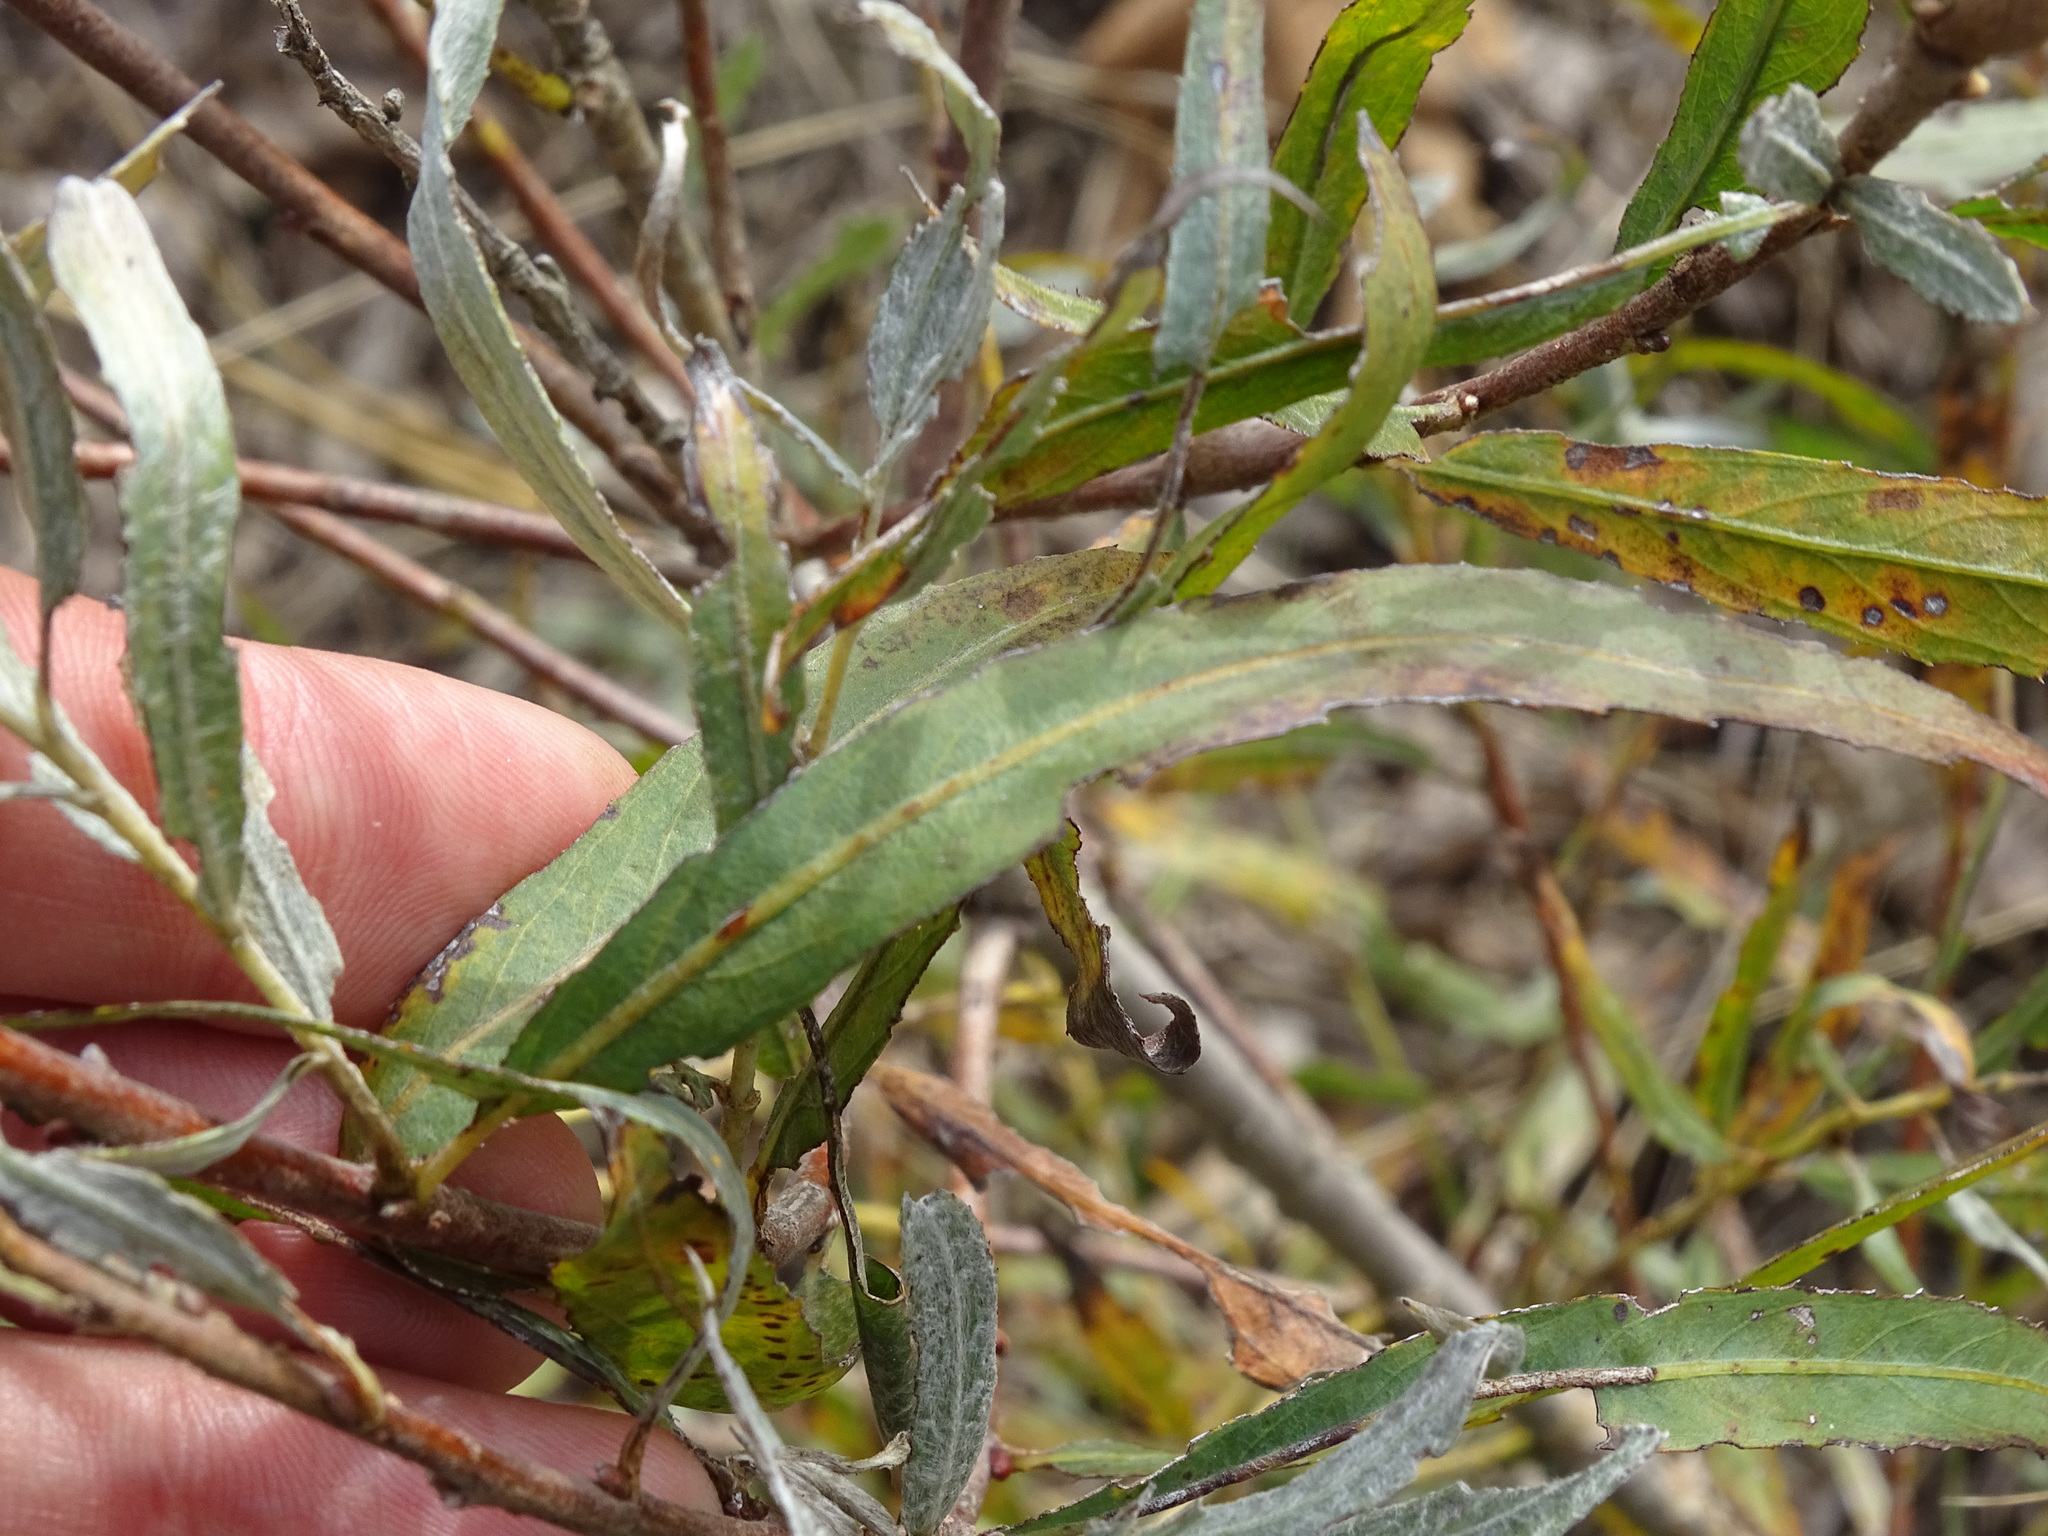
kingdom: Plantae
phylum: Tracheophyta
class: Magnoliopsida
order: Malpighiales
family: Salicaceae
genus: Salix
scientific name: Salix interior
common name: Sandbar willow
